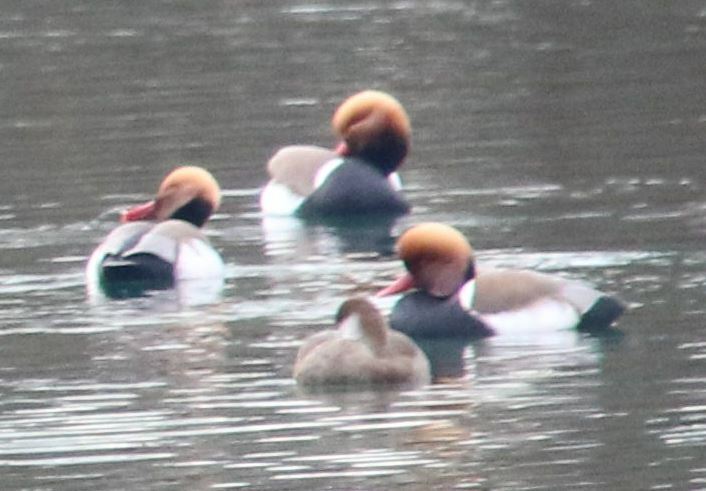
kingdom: Animalia
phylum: Chordata
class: Aves
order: Anseriformes
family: Anatidae
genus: Netta
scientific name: Netta rufina
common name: Red-crested pochard
